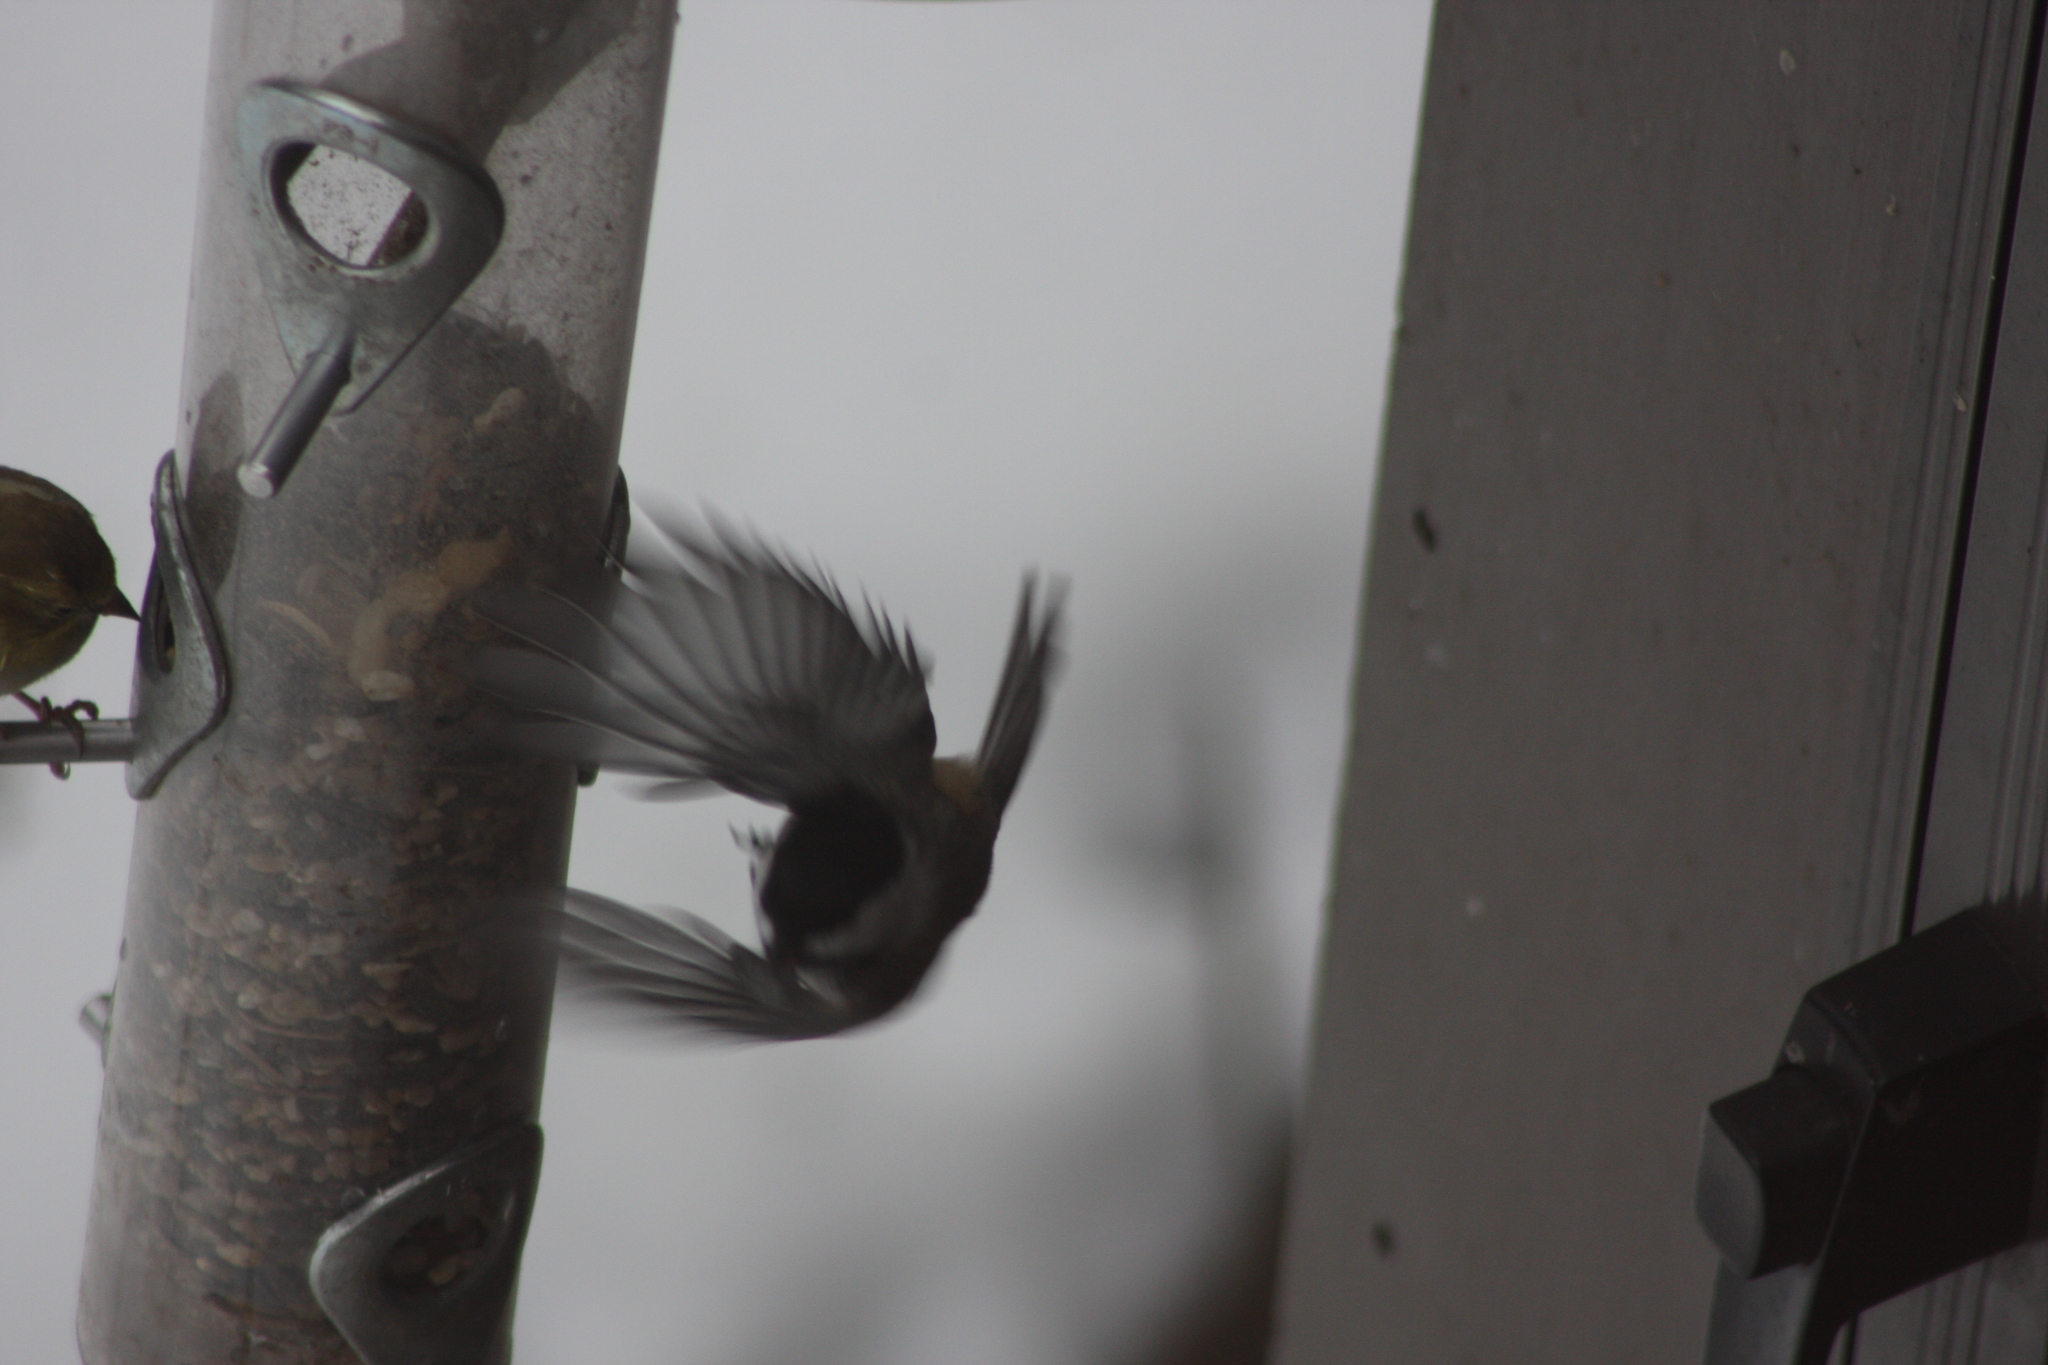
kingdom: Animalia
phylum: Chordata
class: Aves
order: Passeriformes
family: Paridae
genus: Poecile
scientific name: Poecile atricapillus
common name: Black-capped chickadee
